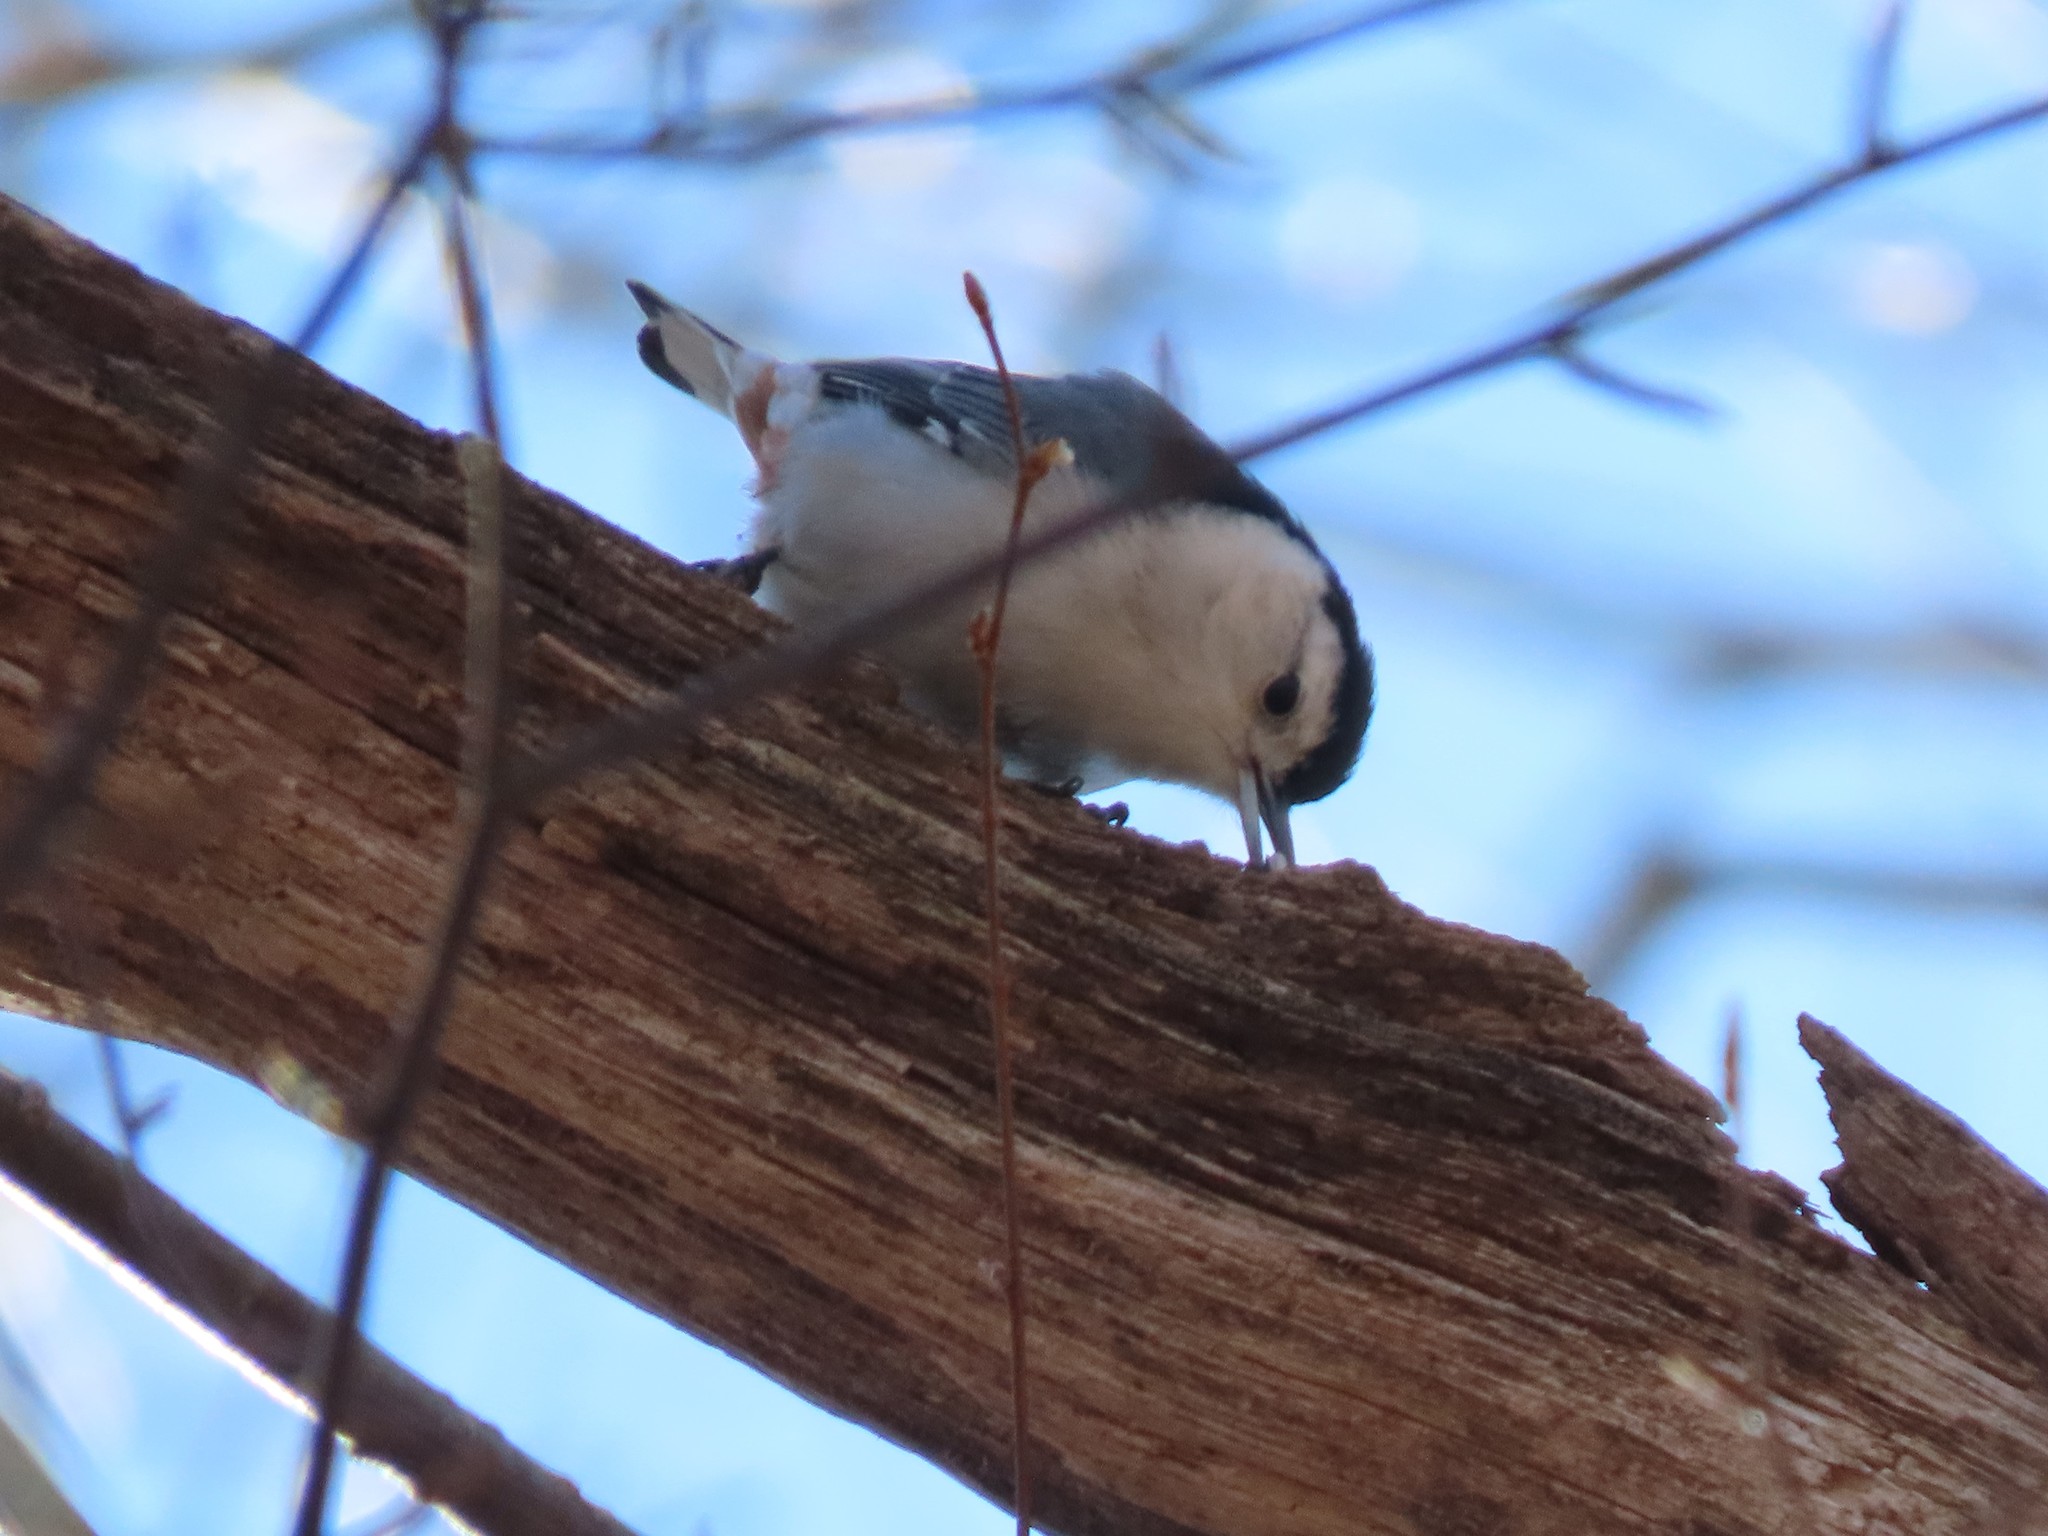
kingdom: Animalia
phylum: Chordata
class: Aves
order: Passeriformes
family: Sittidae
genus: Sitta
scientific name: Sitta carolinensis
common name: White-breasted nuthatch
